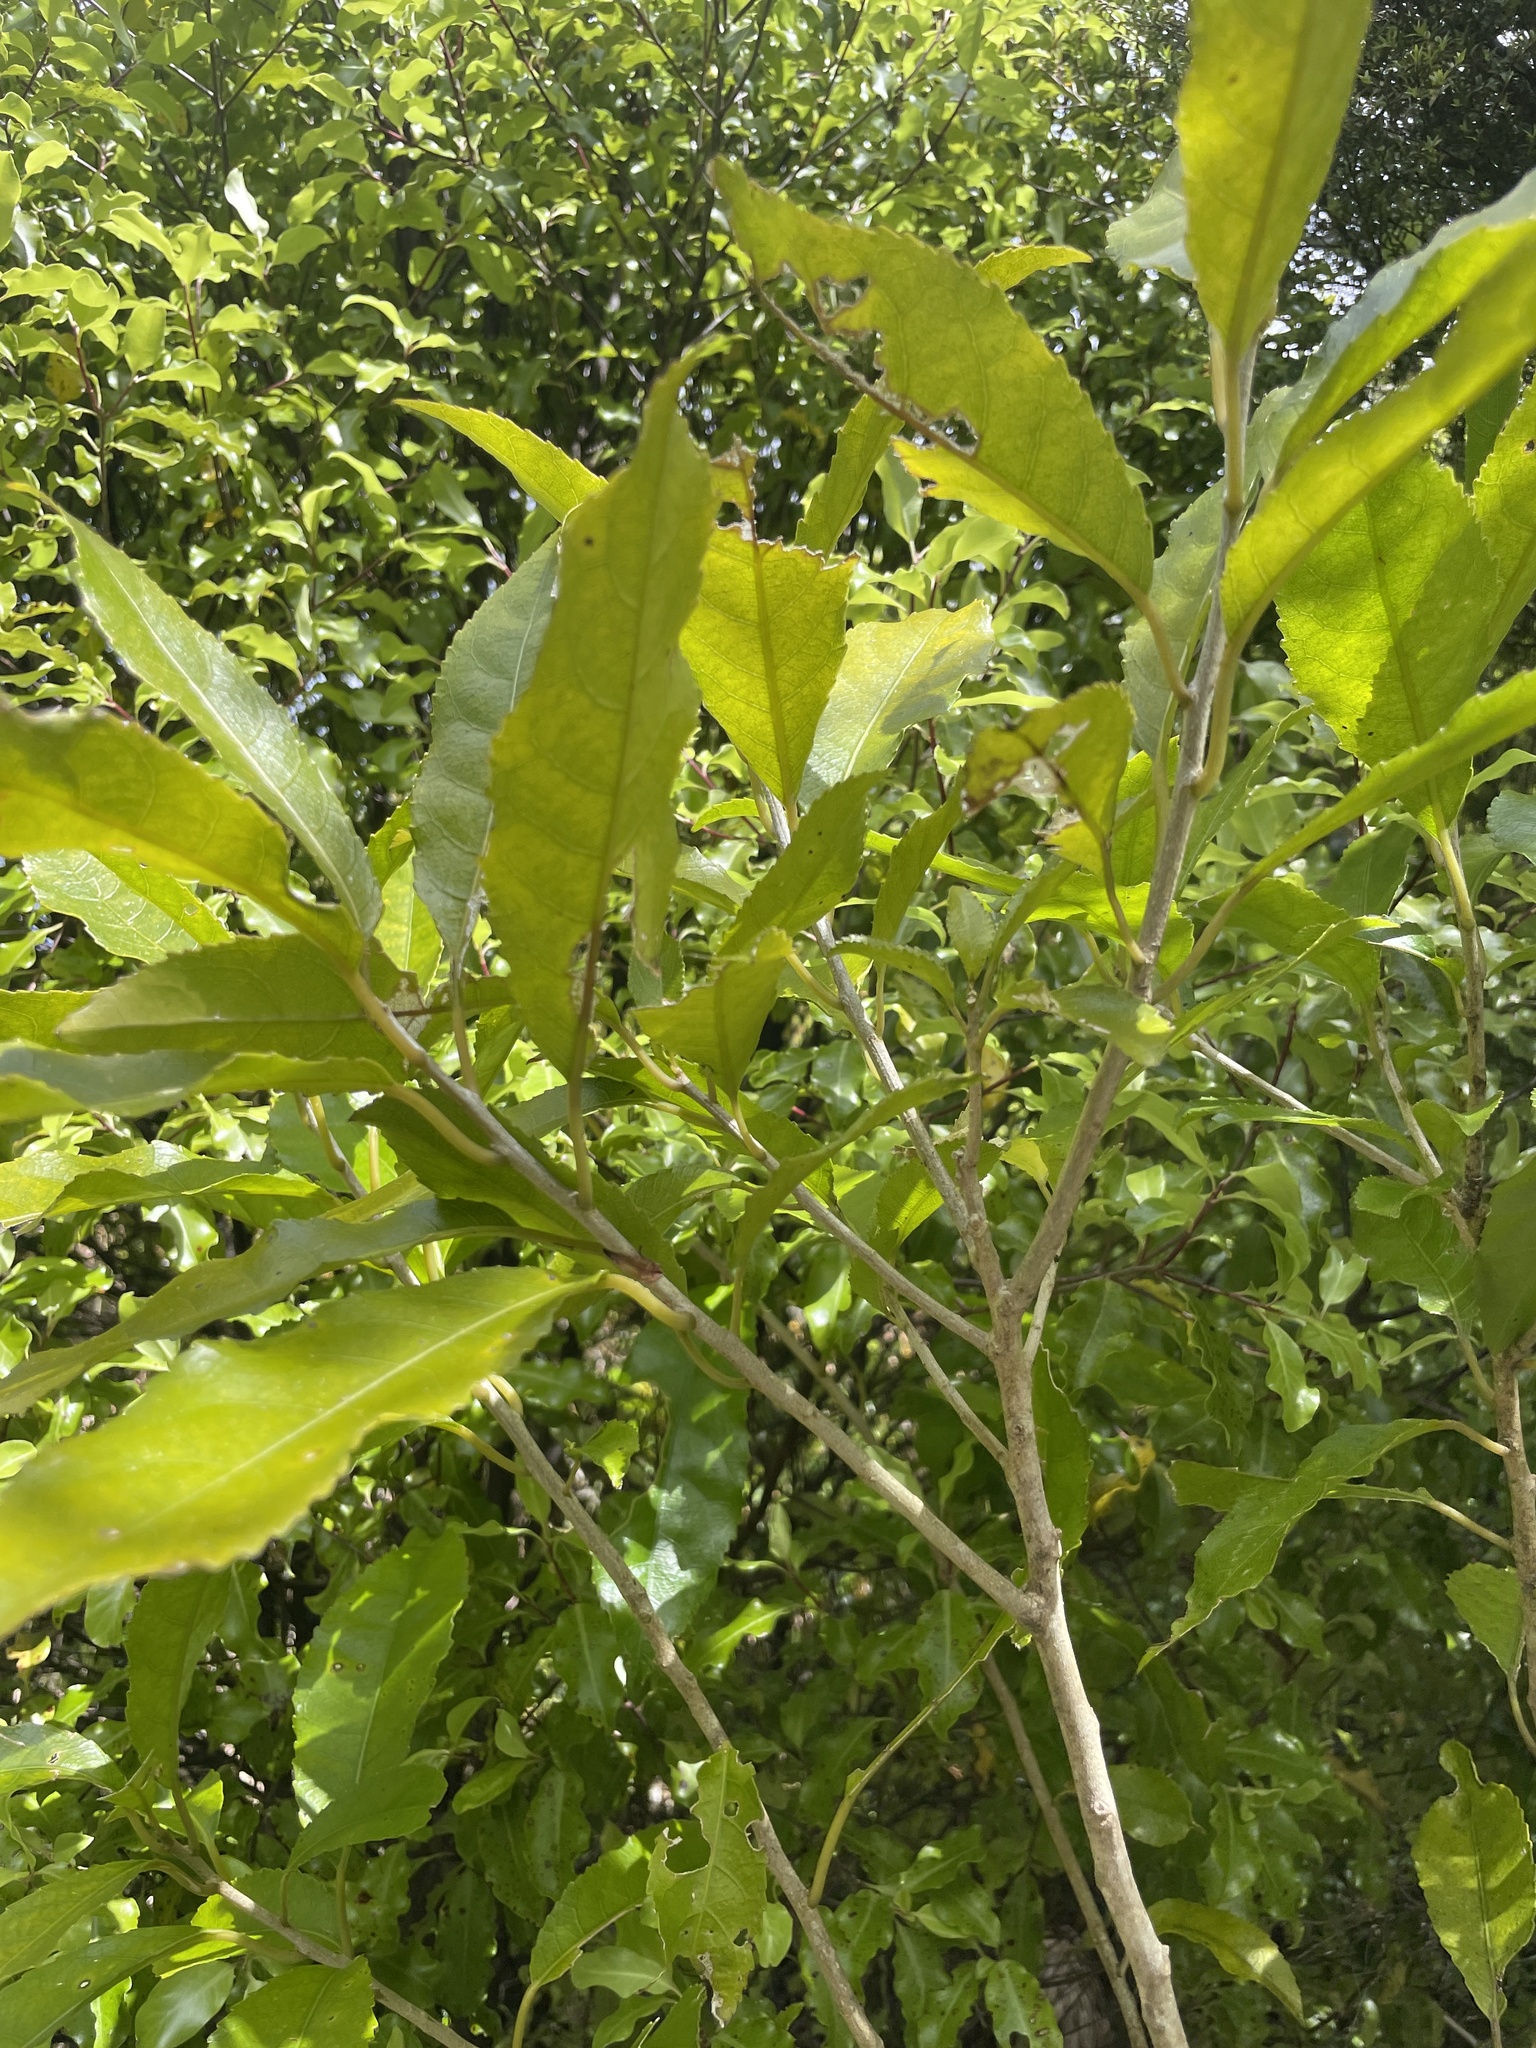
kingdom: Plantae
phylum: Tracheophyta
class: Magnoliopsida
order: Malpighiales
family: Violaceae
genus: Melicytus
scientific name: Melicytus ramiflorus
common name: Mahoe
